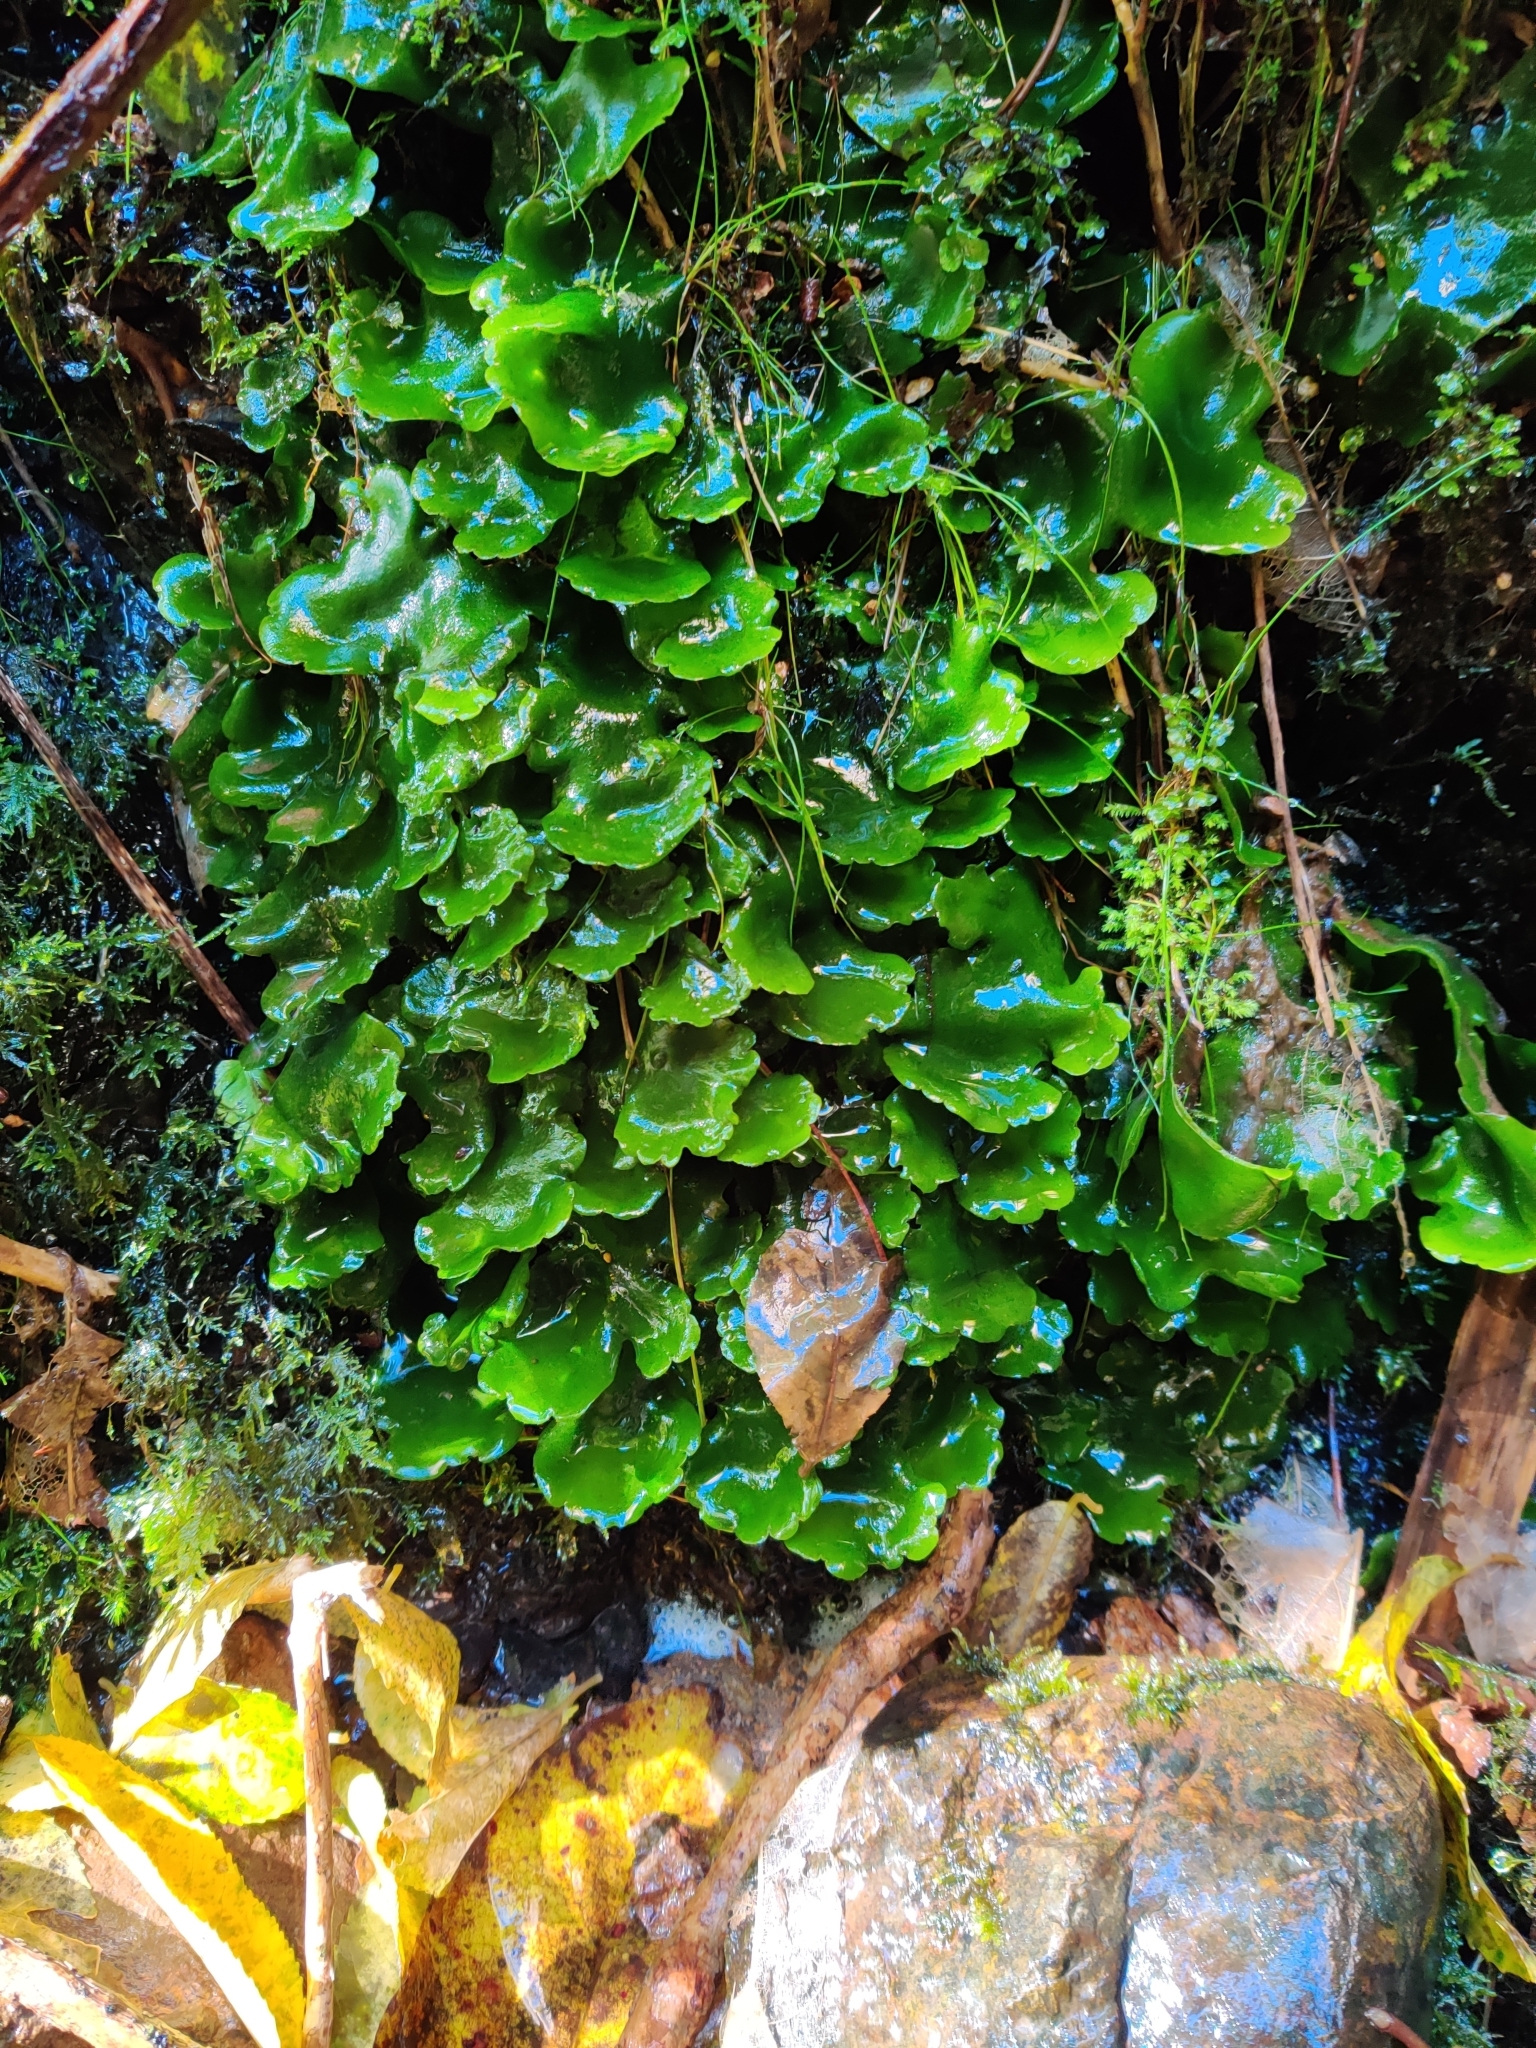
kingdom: Plantae
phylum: Marchantiophyta
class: Marchantiopsida
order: Marchantiales
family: Monocleaceae
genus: Monoclea
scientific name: Monoclea forsteri
